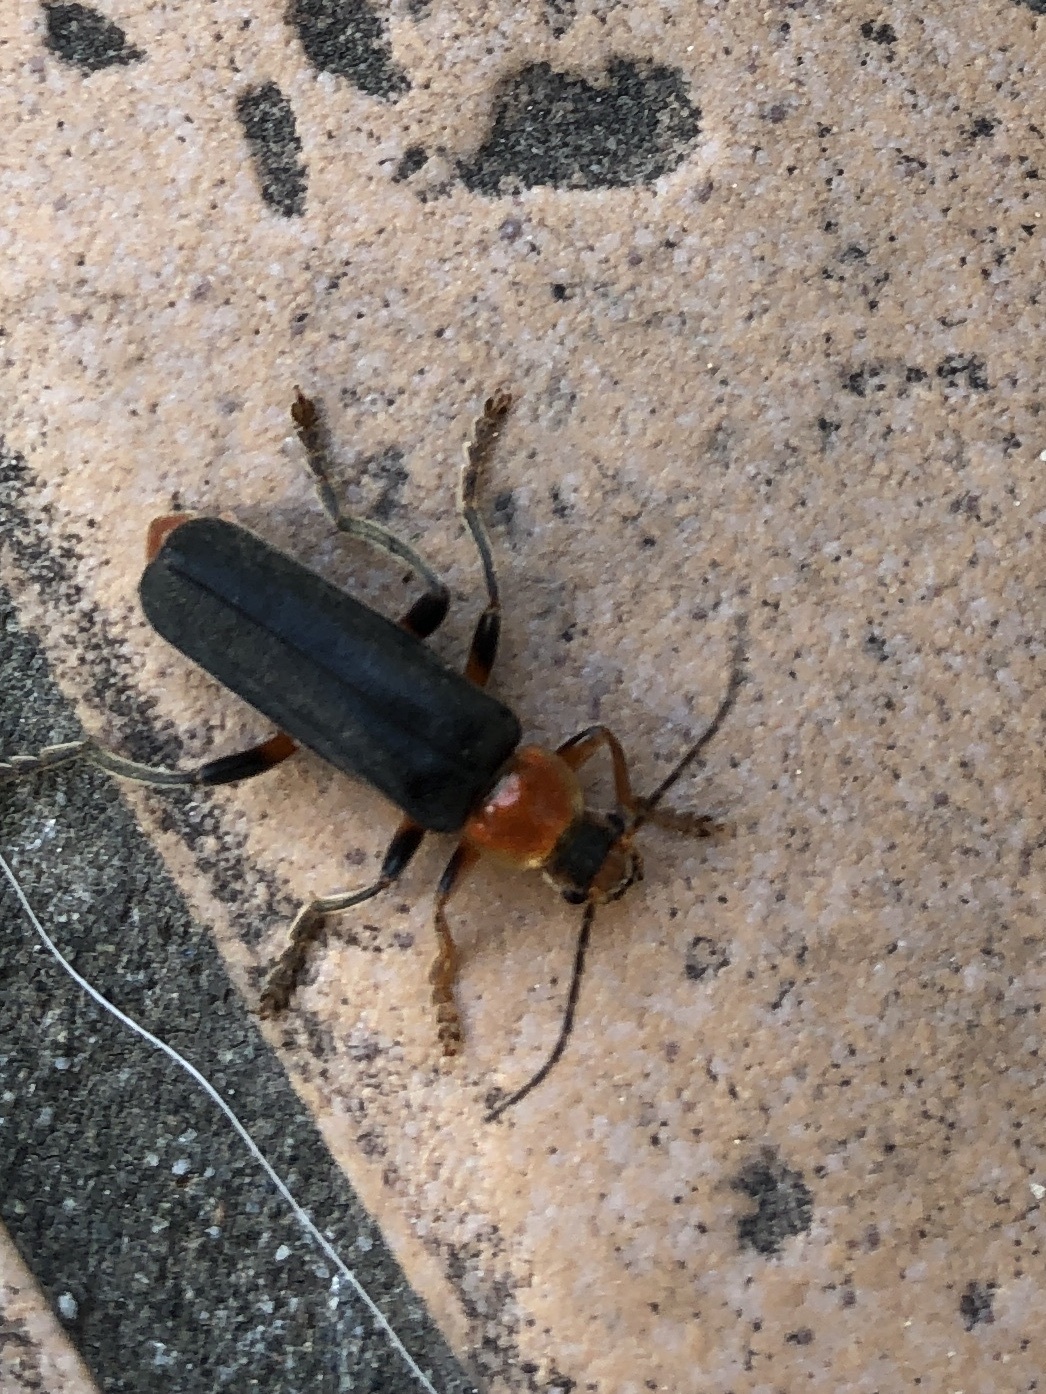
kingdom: Animalia
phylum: Arthropoda
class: Insecta
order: Coleoptera
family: Cantharidae
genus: Cantharis
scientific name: Cantharis livida
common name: Livid soldier beetle
